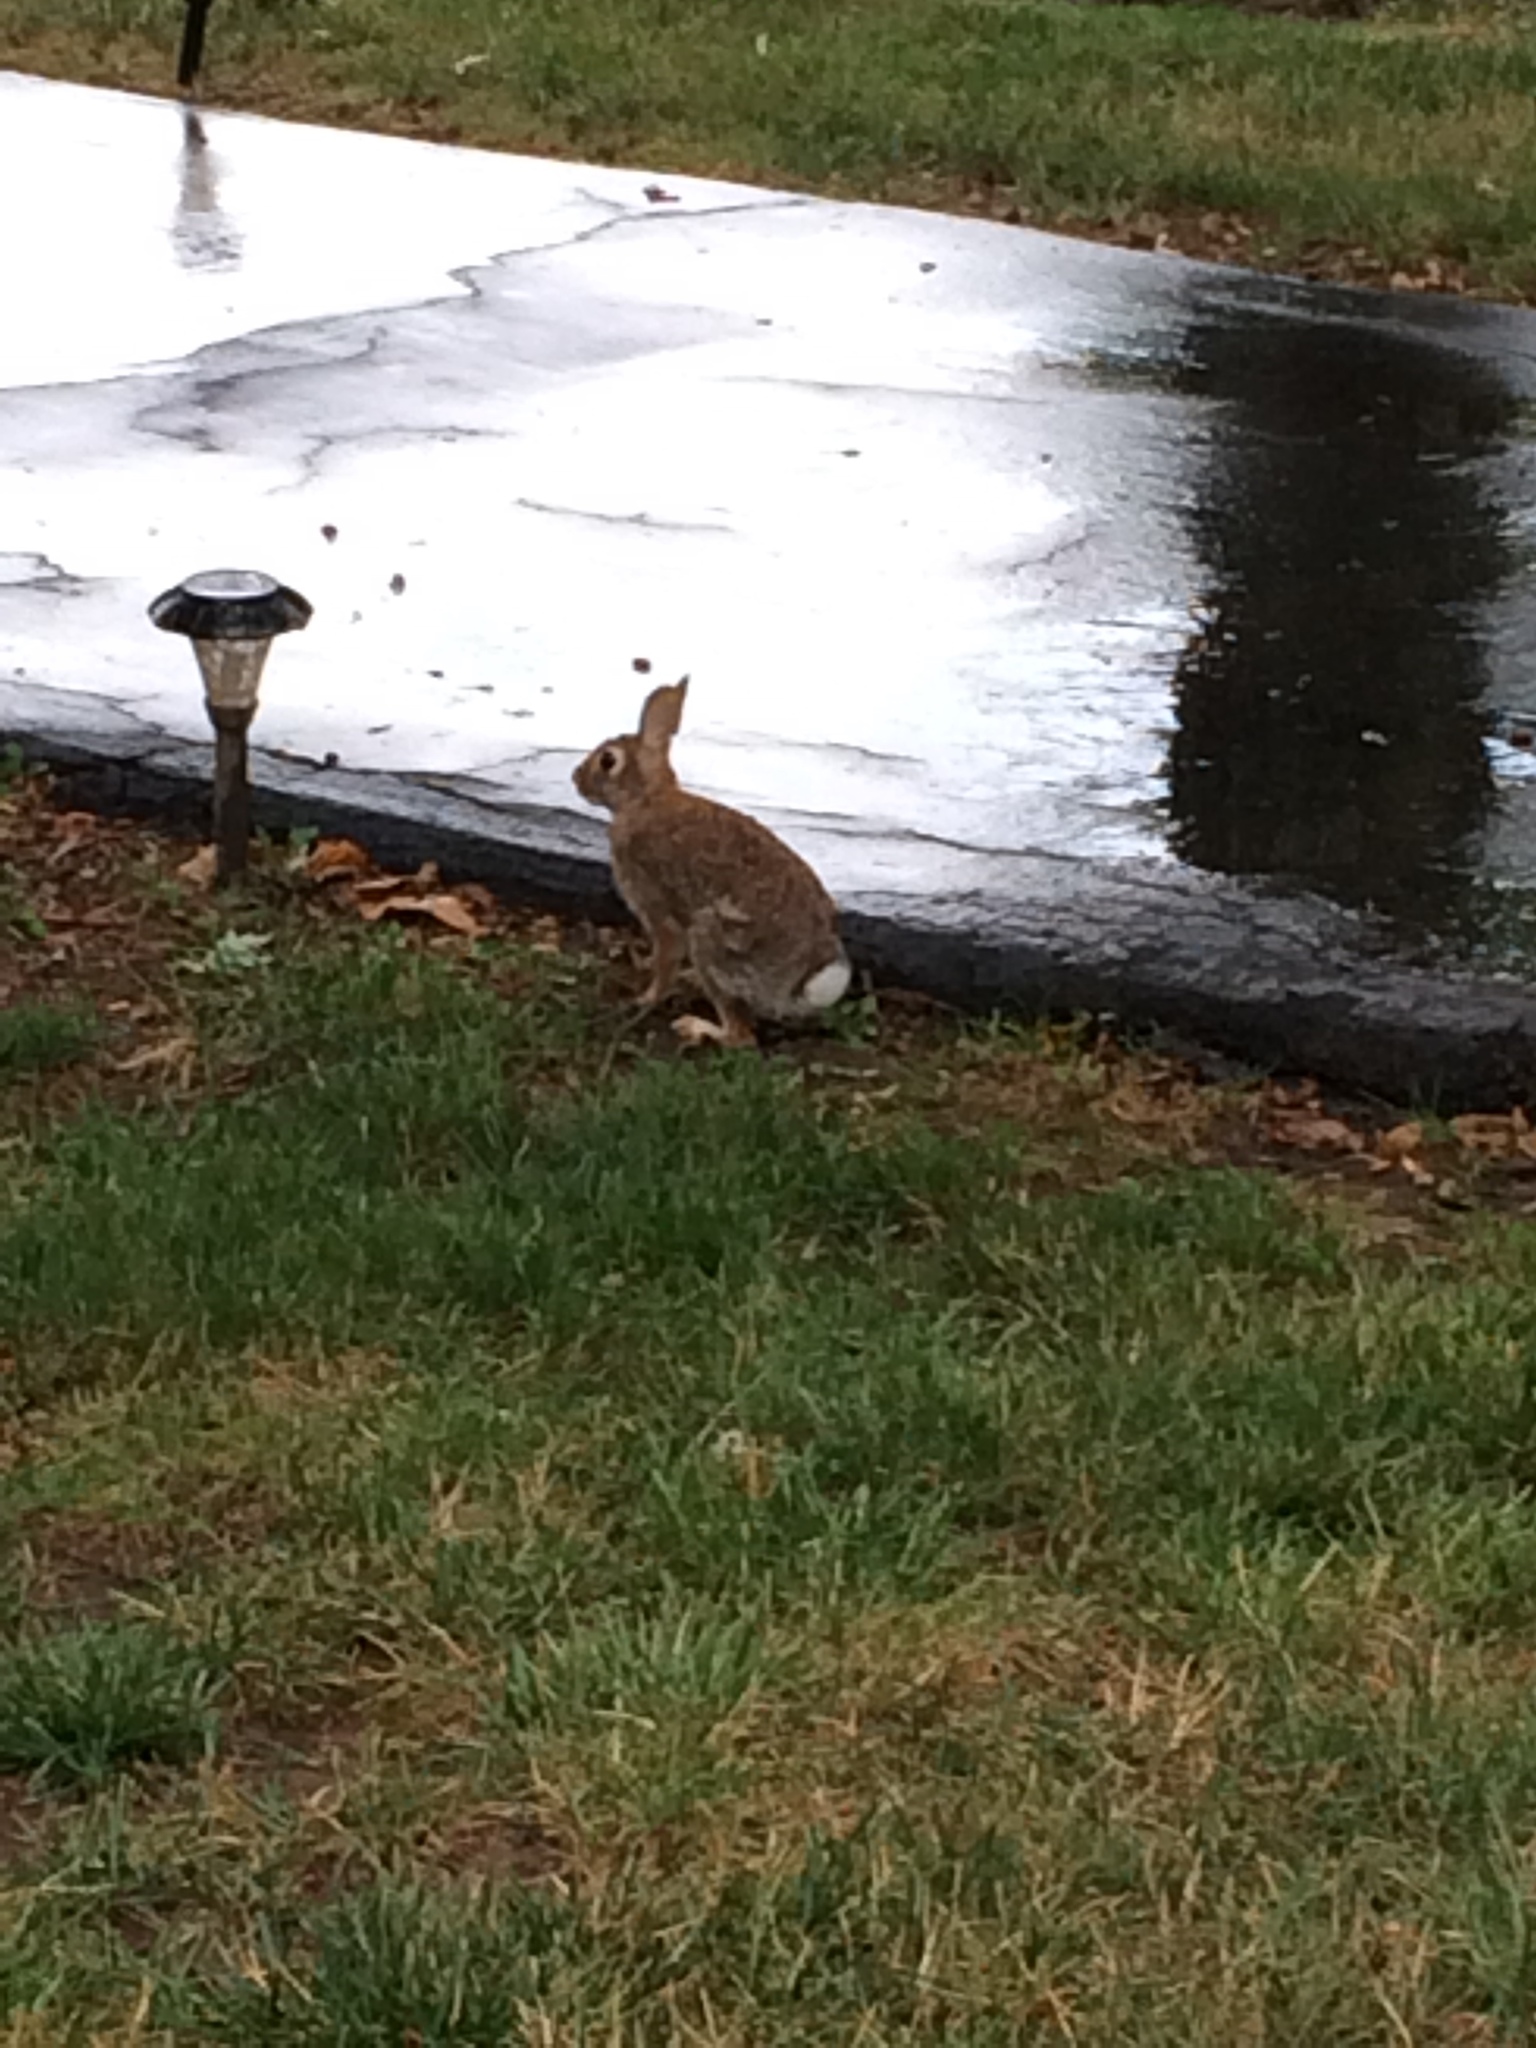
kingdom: Animalia
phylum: Chordata
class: Mammalia
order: Lagomorpha
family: Leporidae
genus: Sylvilagus
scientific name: Sylvilagus floridanus
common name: Eastern cottontail
